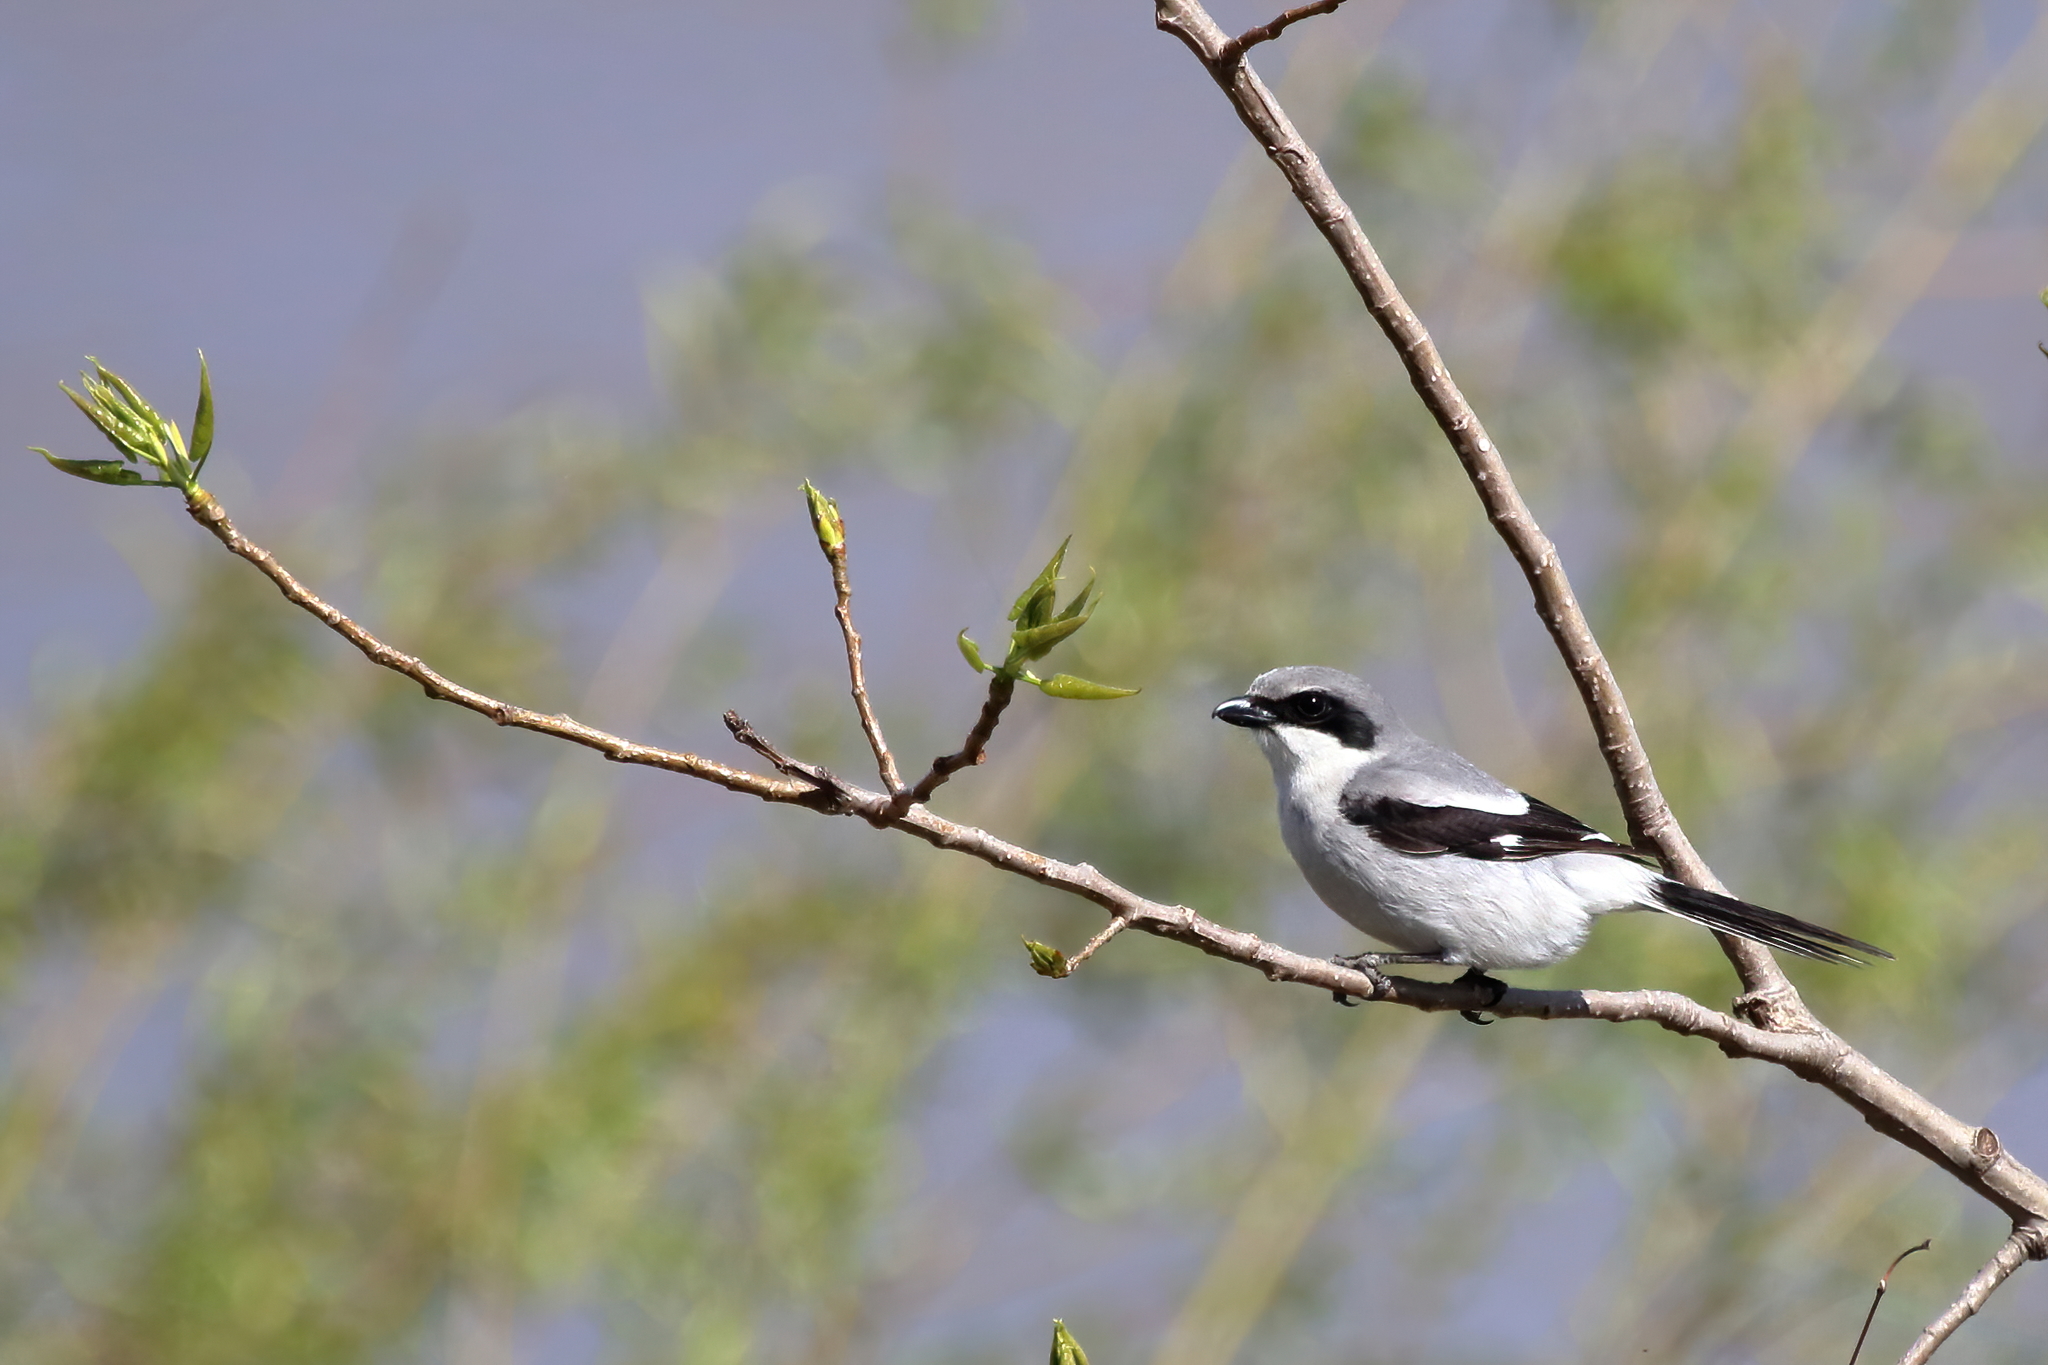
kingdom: Animalia
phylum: Chordata
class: Aves
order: Passeriformes
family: Laniidae
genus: Lanius
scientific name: Lanius ludovicianus
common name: Loggerhead shrike
